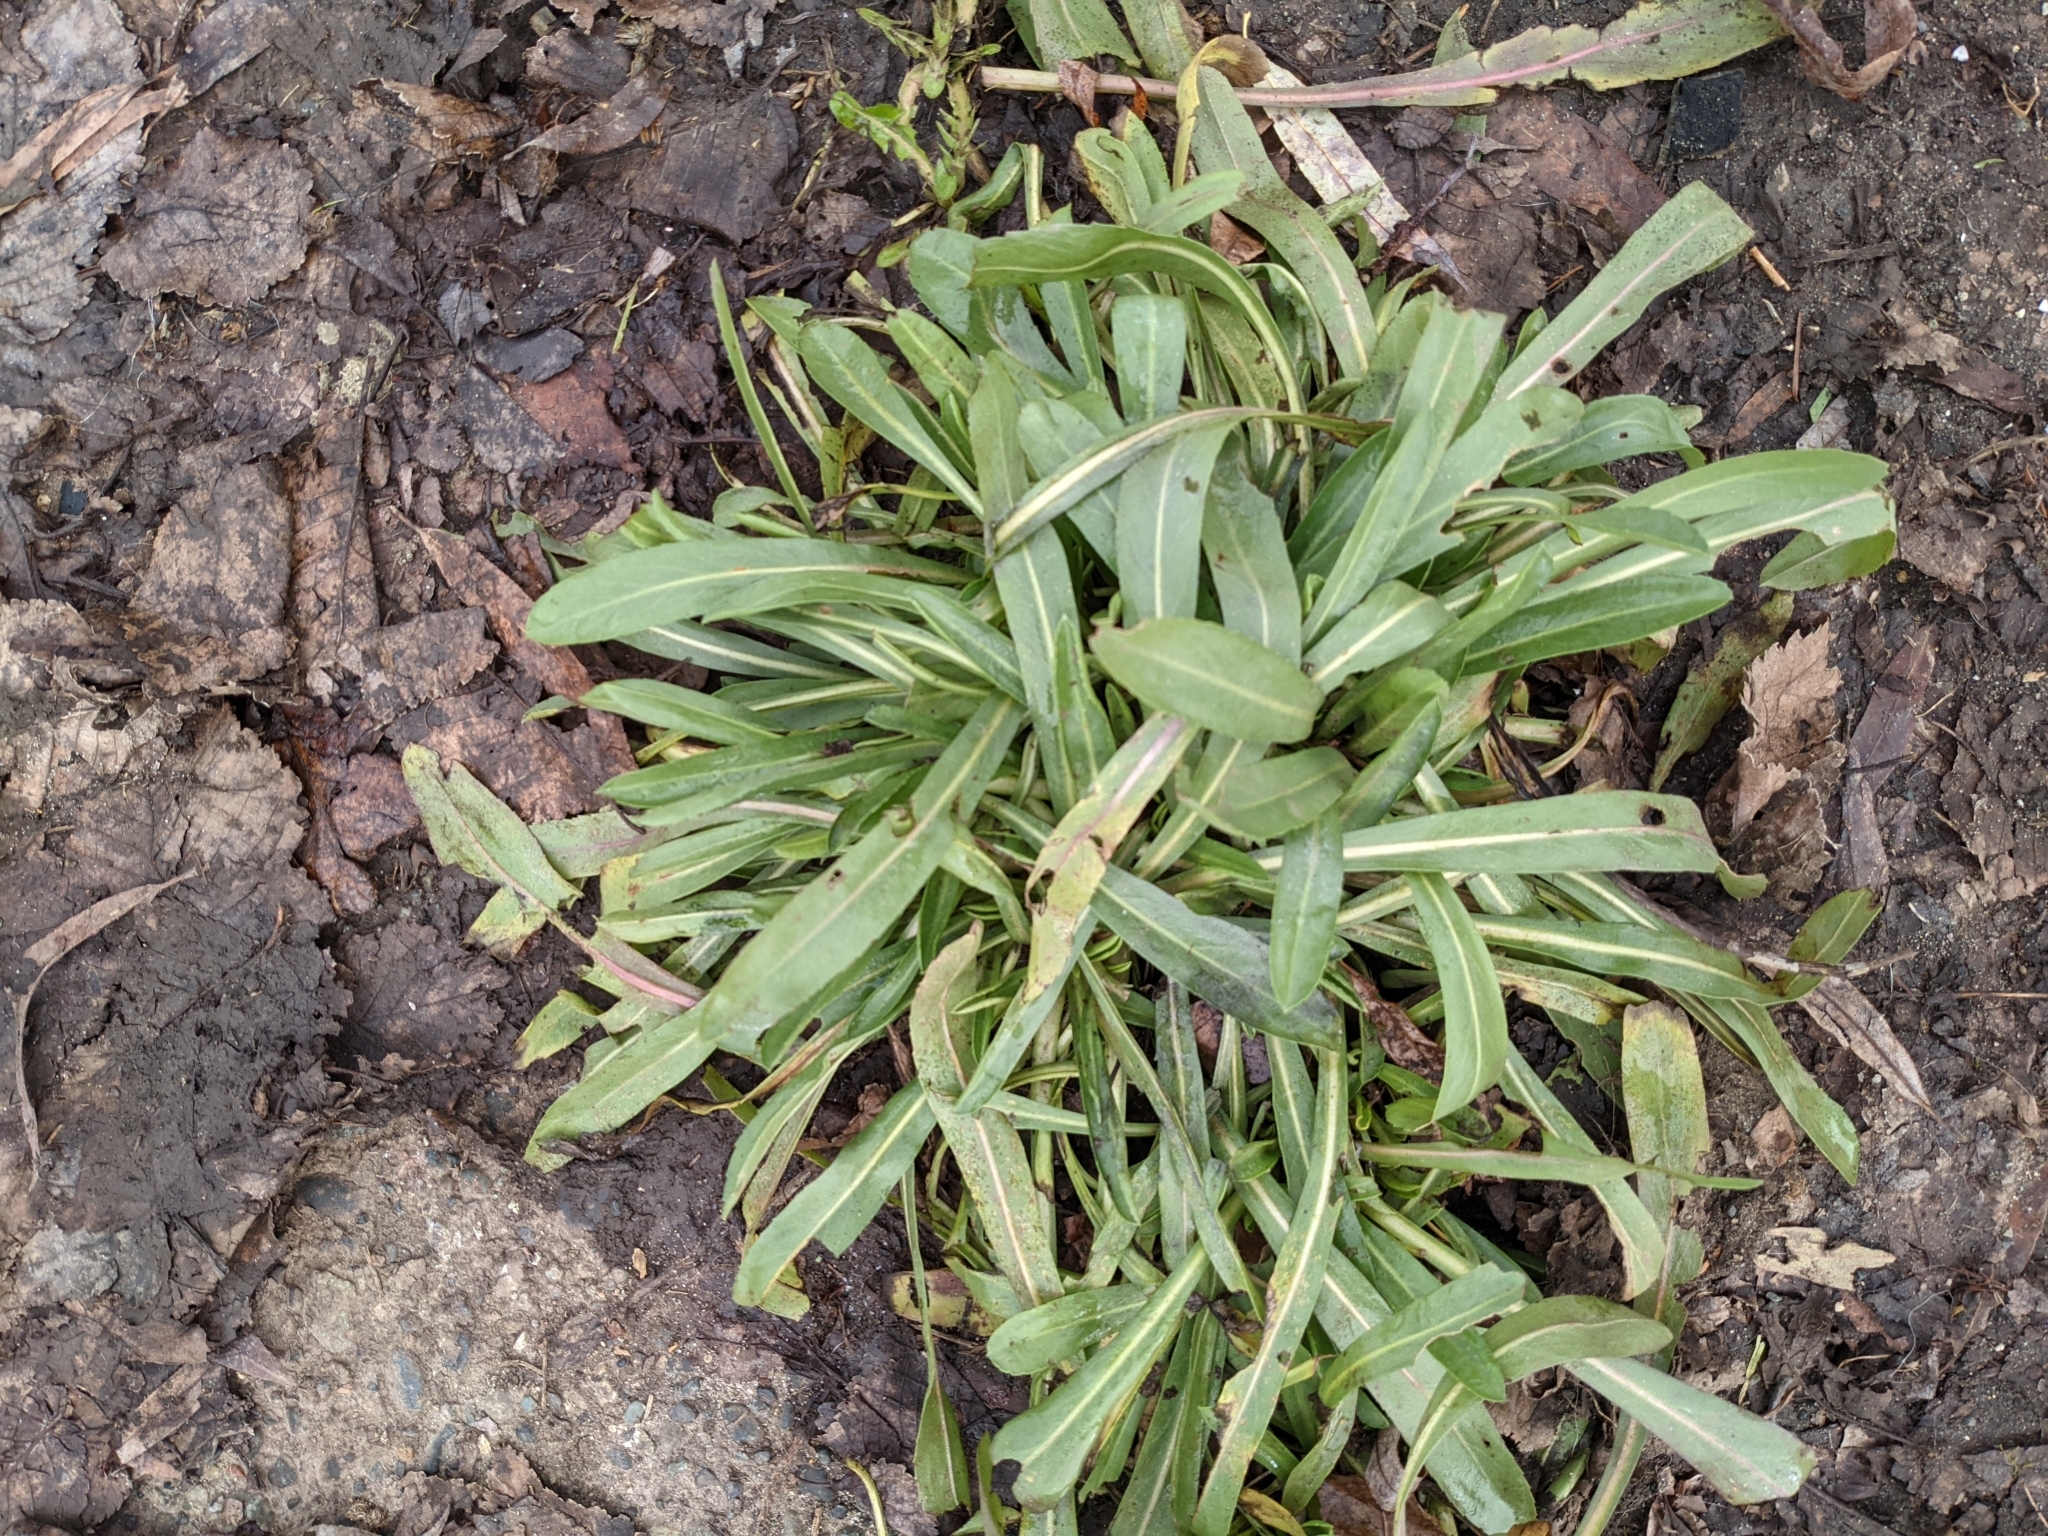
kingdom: Plantae
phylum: Tracheophyta
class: Magnoliopsida
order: Asterales
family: Asteraceae
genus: Grindelia
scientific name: Grindelia hirsutula
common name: Hairy gumweed
